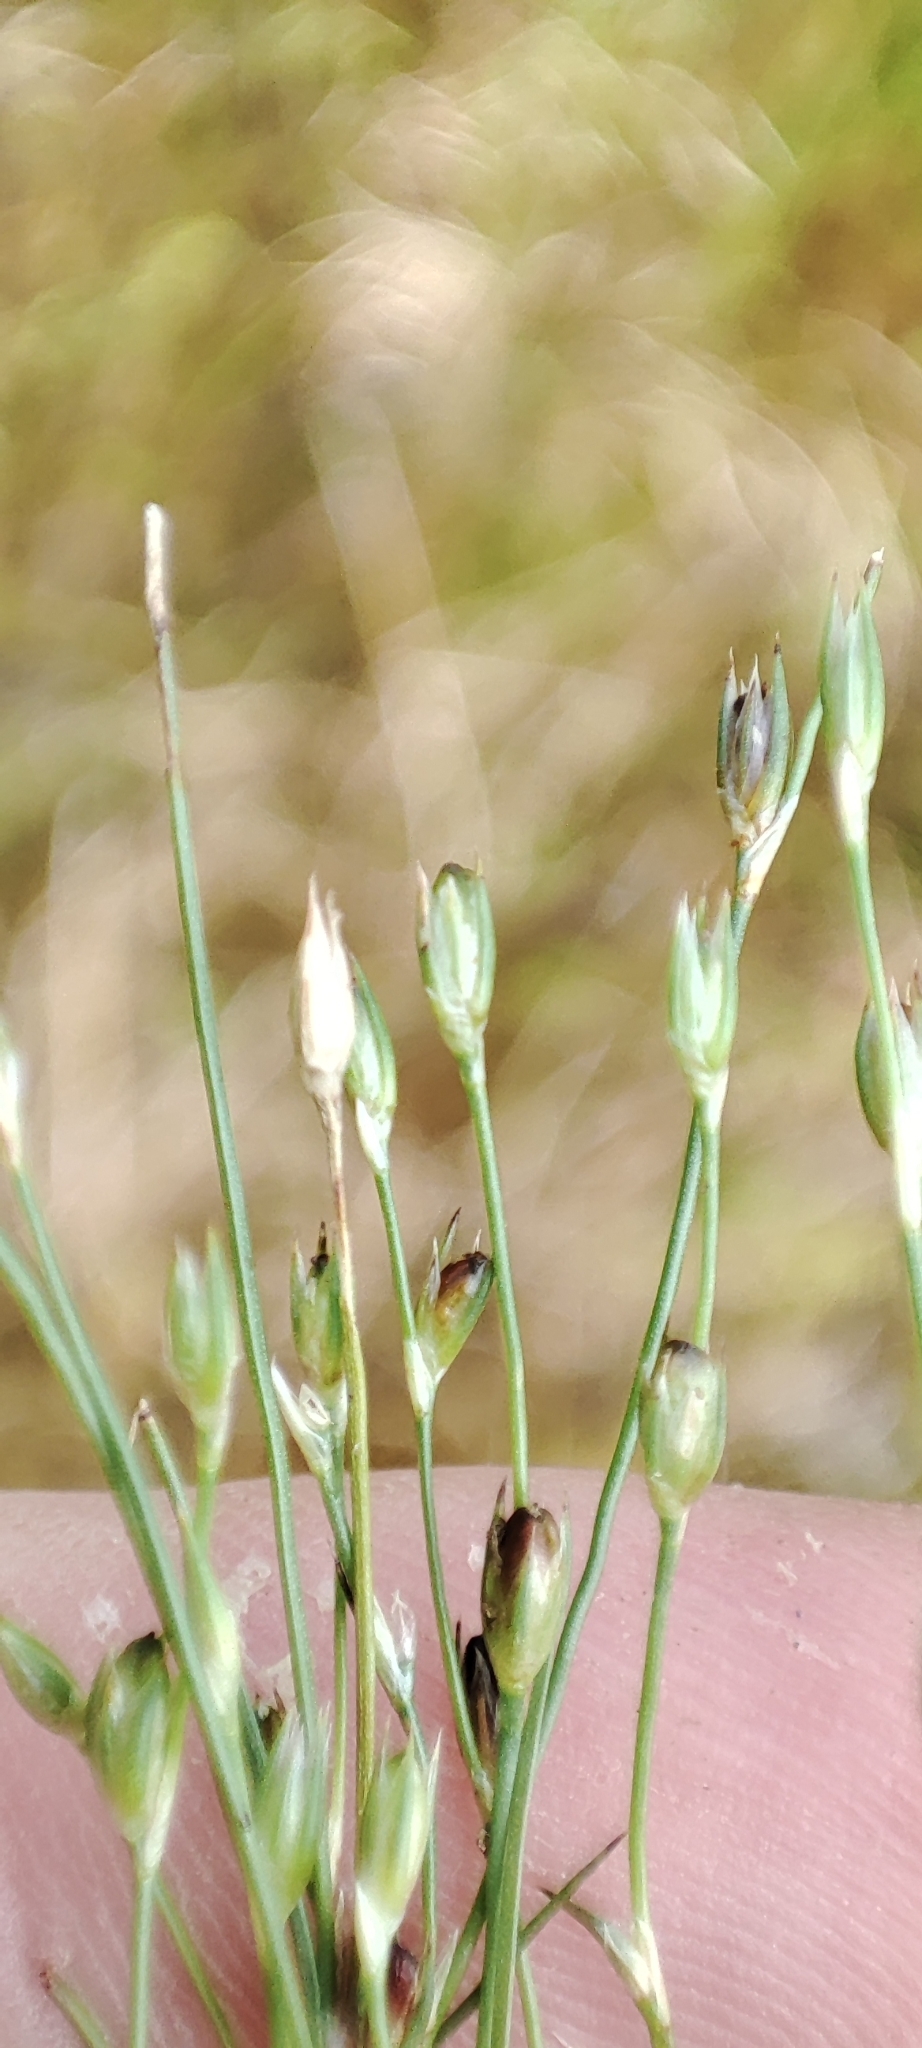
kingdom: Plantae
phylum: Tracheophyta
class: Liliopsida
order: Poales
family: Juncaceae
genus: Juncus
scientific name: Juncus bufonius
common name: Toad rush
